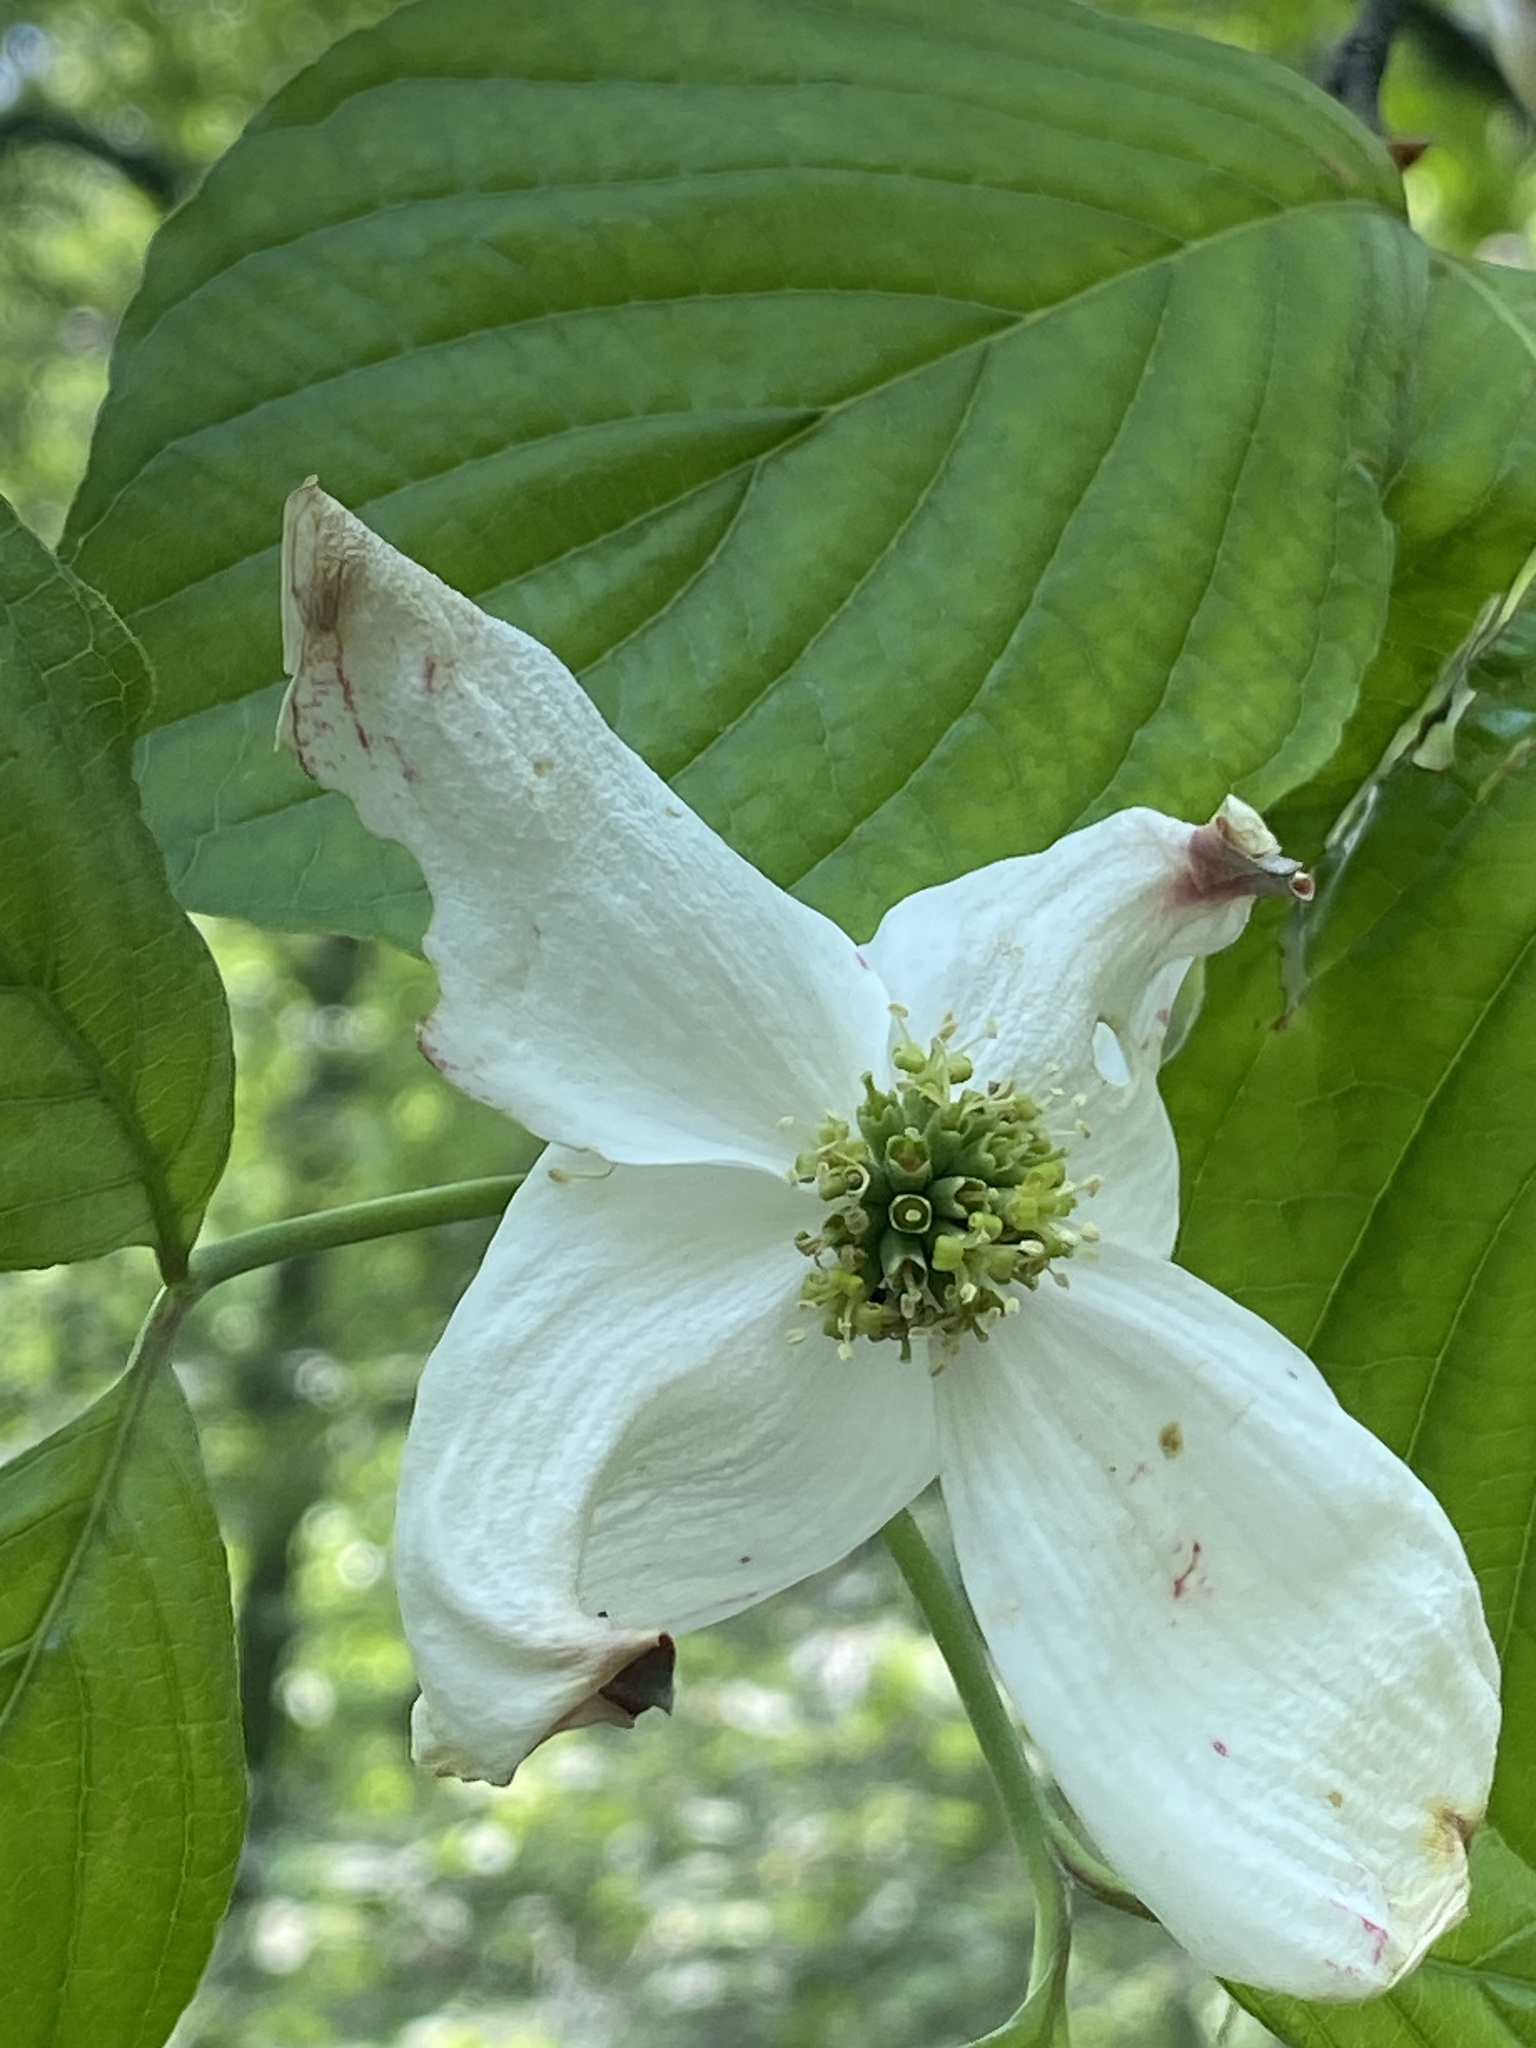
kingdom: Plantae
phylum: Tracheophyta
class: Magnoliopsida
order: Cornales
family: Cornaceae
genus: Cornus
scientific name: Cornus florida
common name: Flowering dogwood
